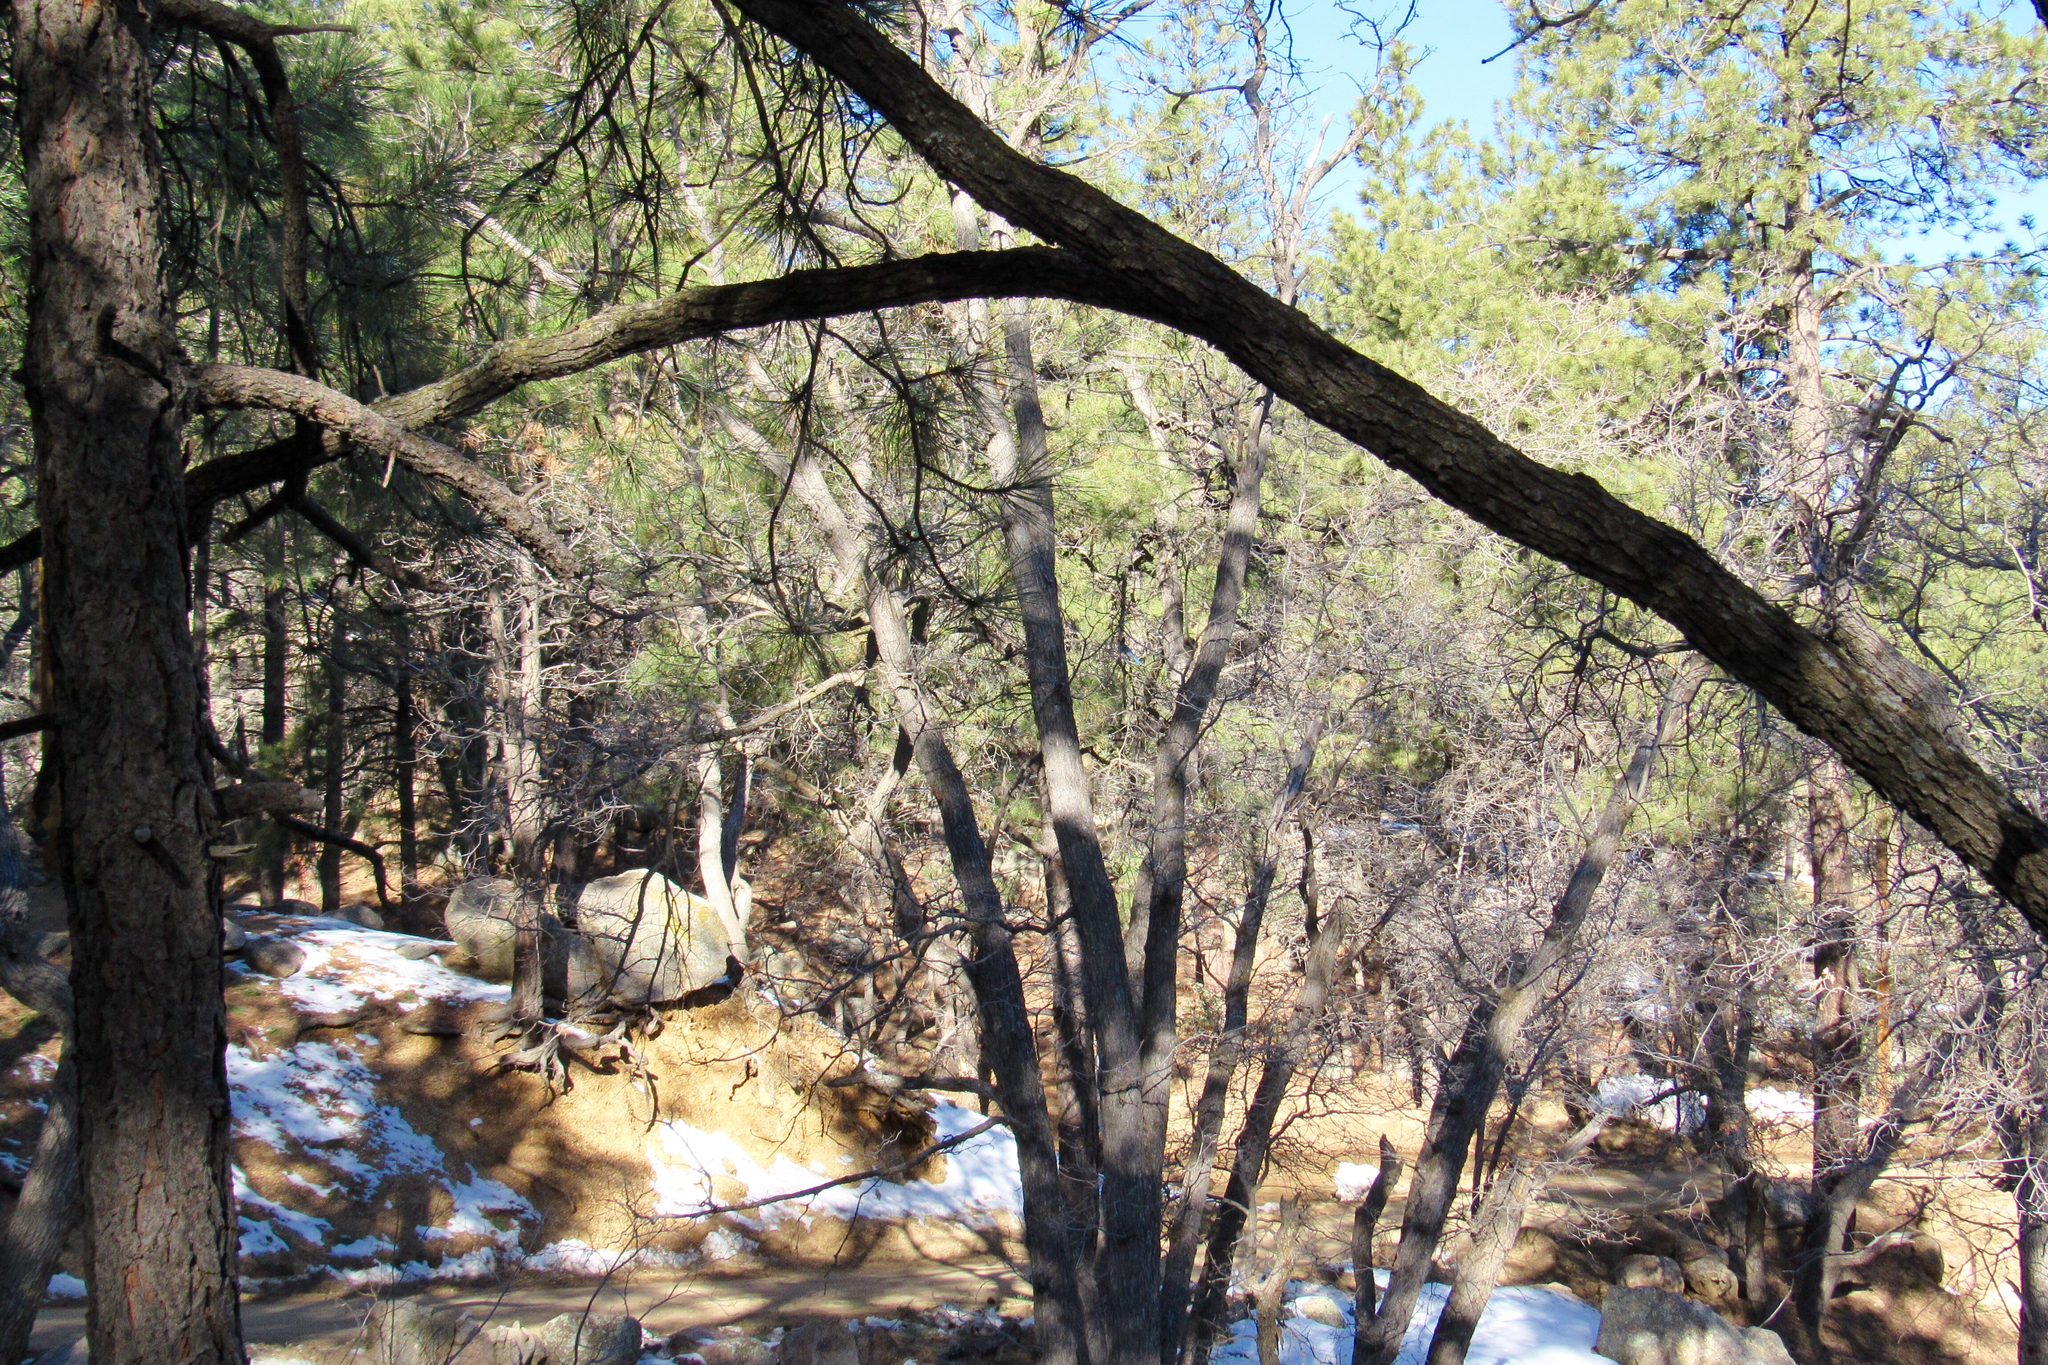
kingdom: Plantae
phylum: Tracheophyta
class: Magnoliopsida
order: Fagales
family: Fagaceae
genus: Quercus
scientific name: Quercus gambelii
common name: Gambel oak
